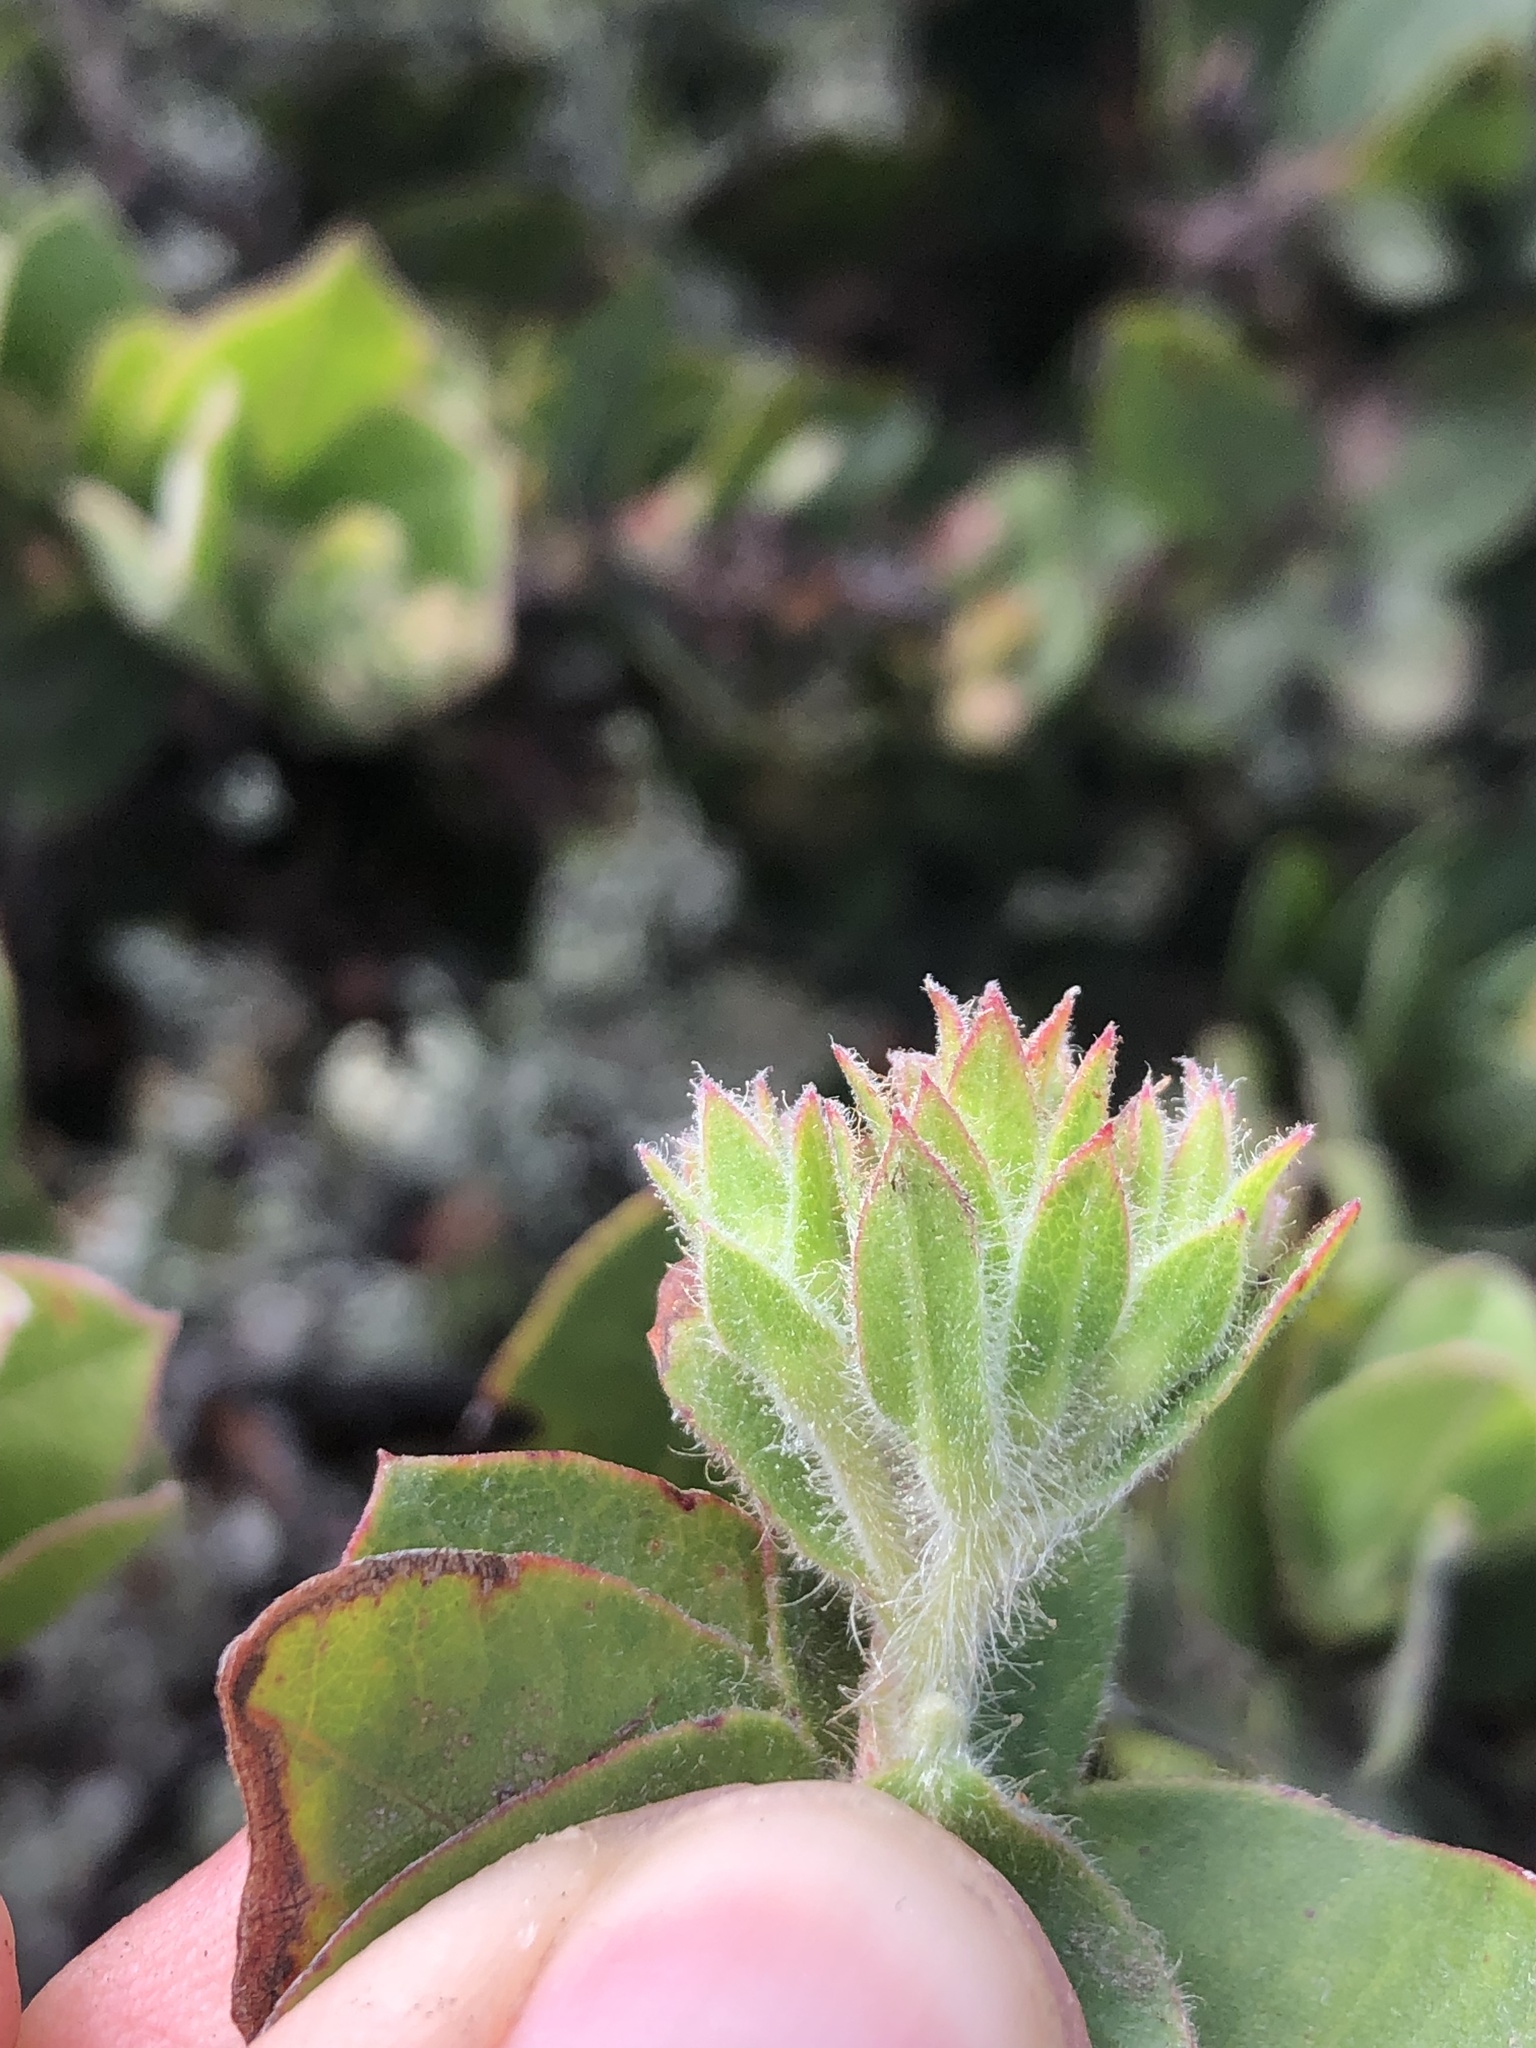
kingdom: Plantae
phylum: Tracheophyta
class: Magnoliopsida
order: Ericales
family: Ericaceae
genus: Arctostaphylos
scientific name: Arctostaphylos montaraensis
